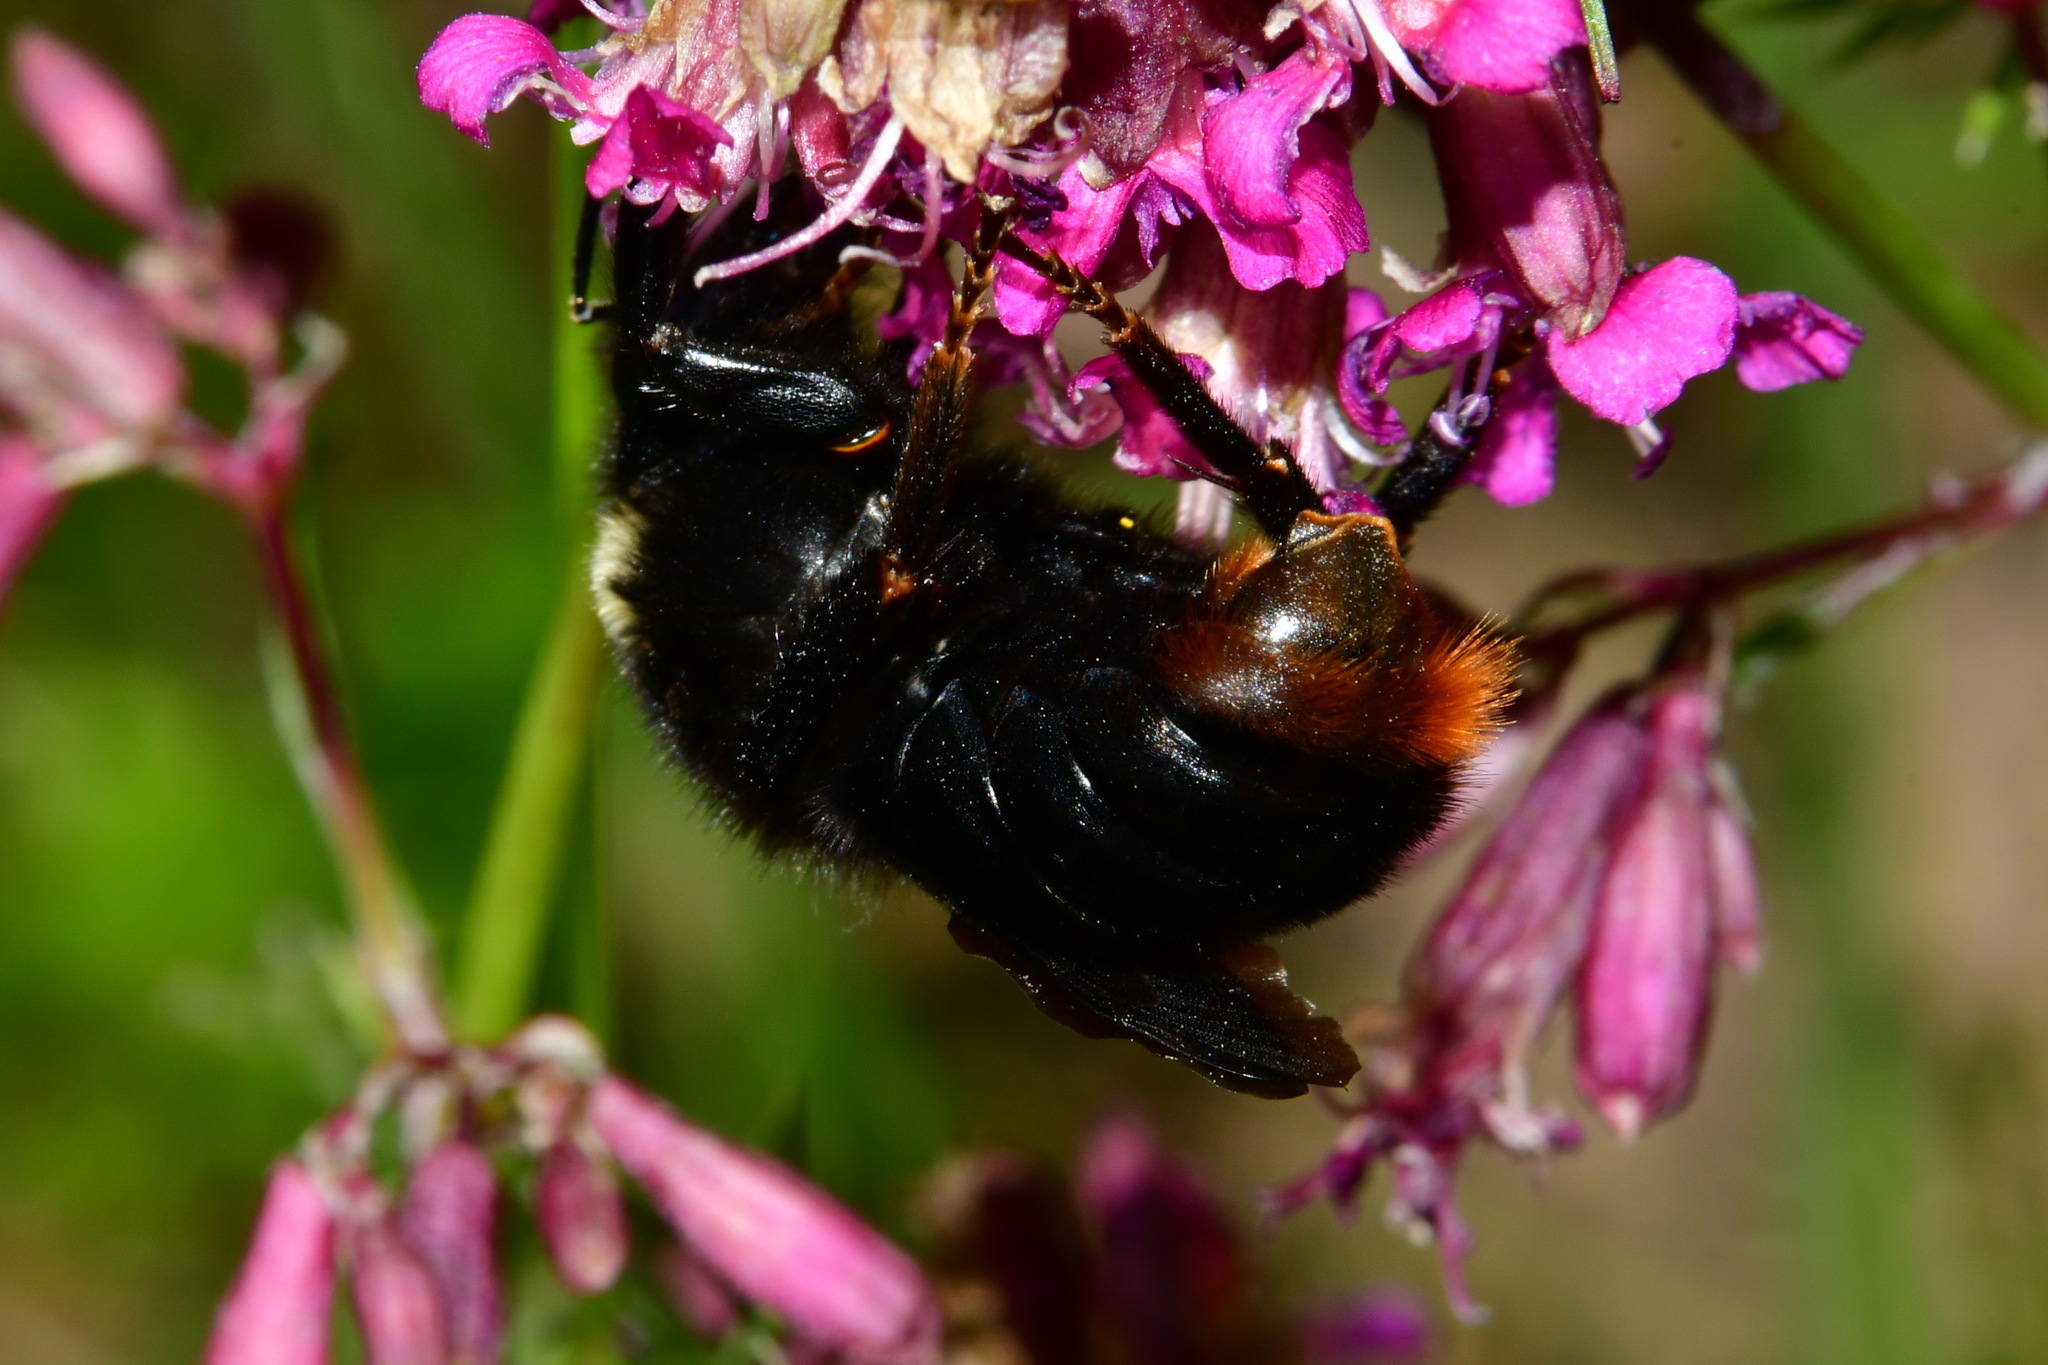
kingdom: Animalia
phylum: Arthropoda
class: Insecta
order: Hymenoptera
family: Apidae
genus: Bombus
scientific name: Bombus rupestris
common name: Hill cuckoo-bee
